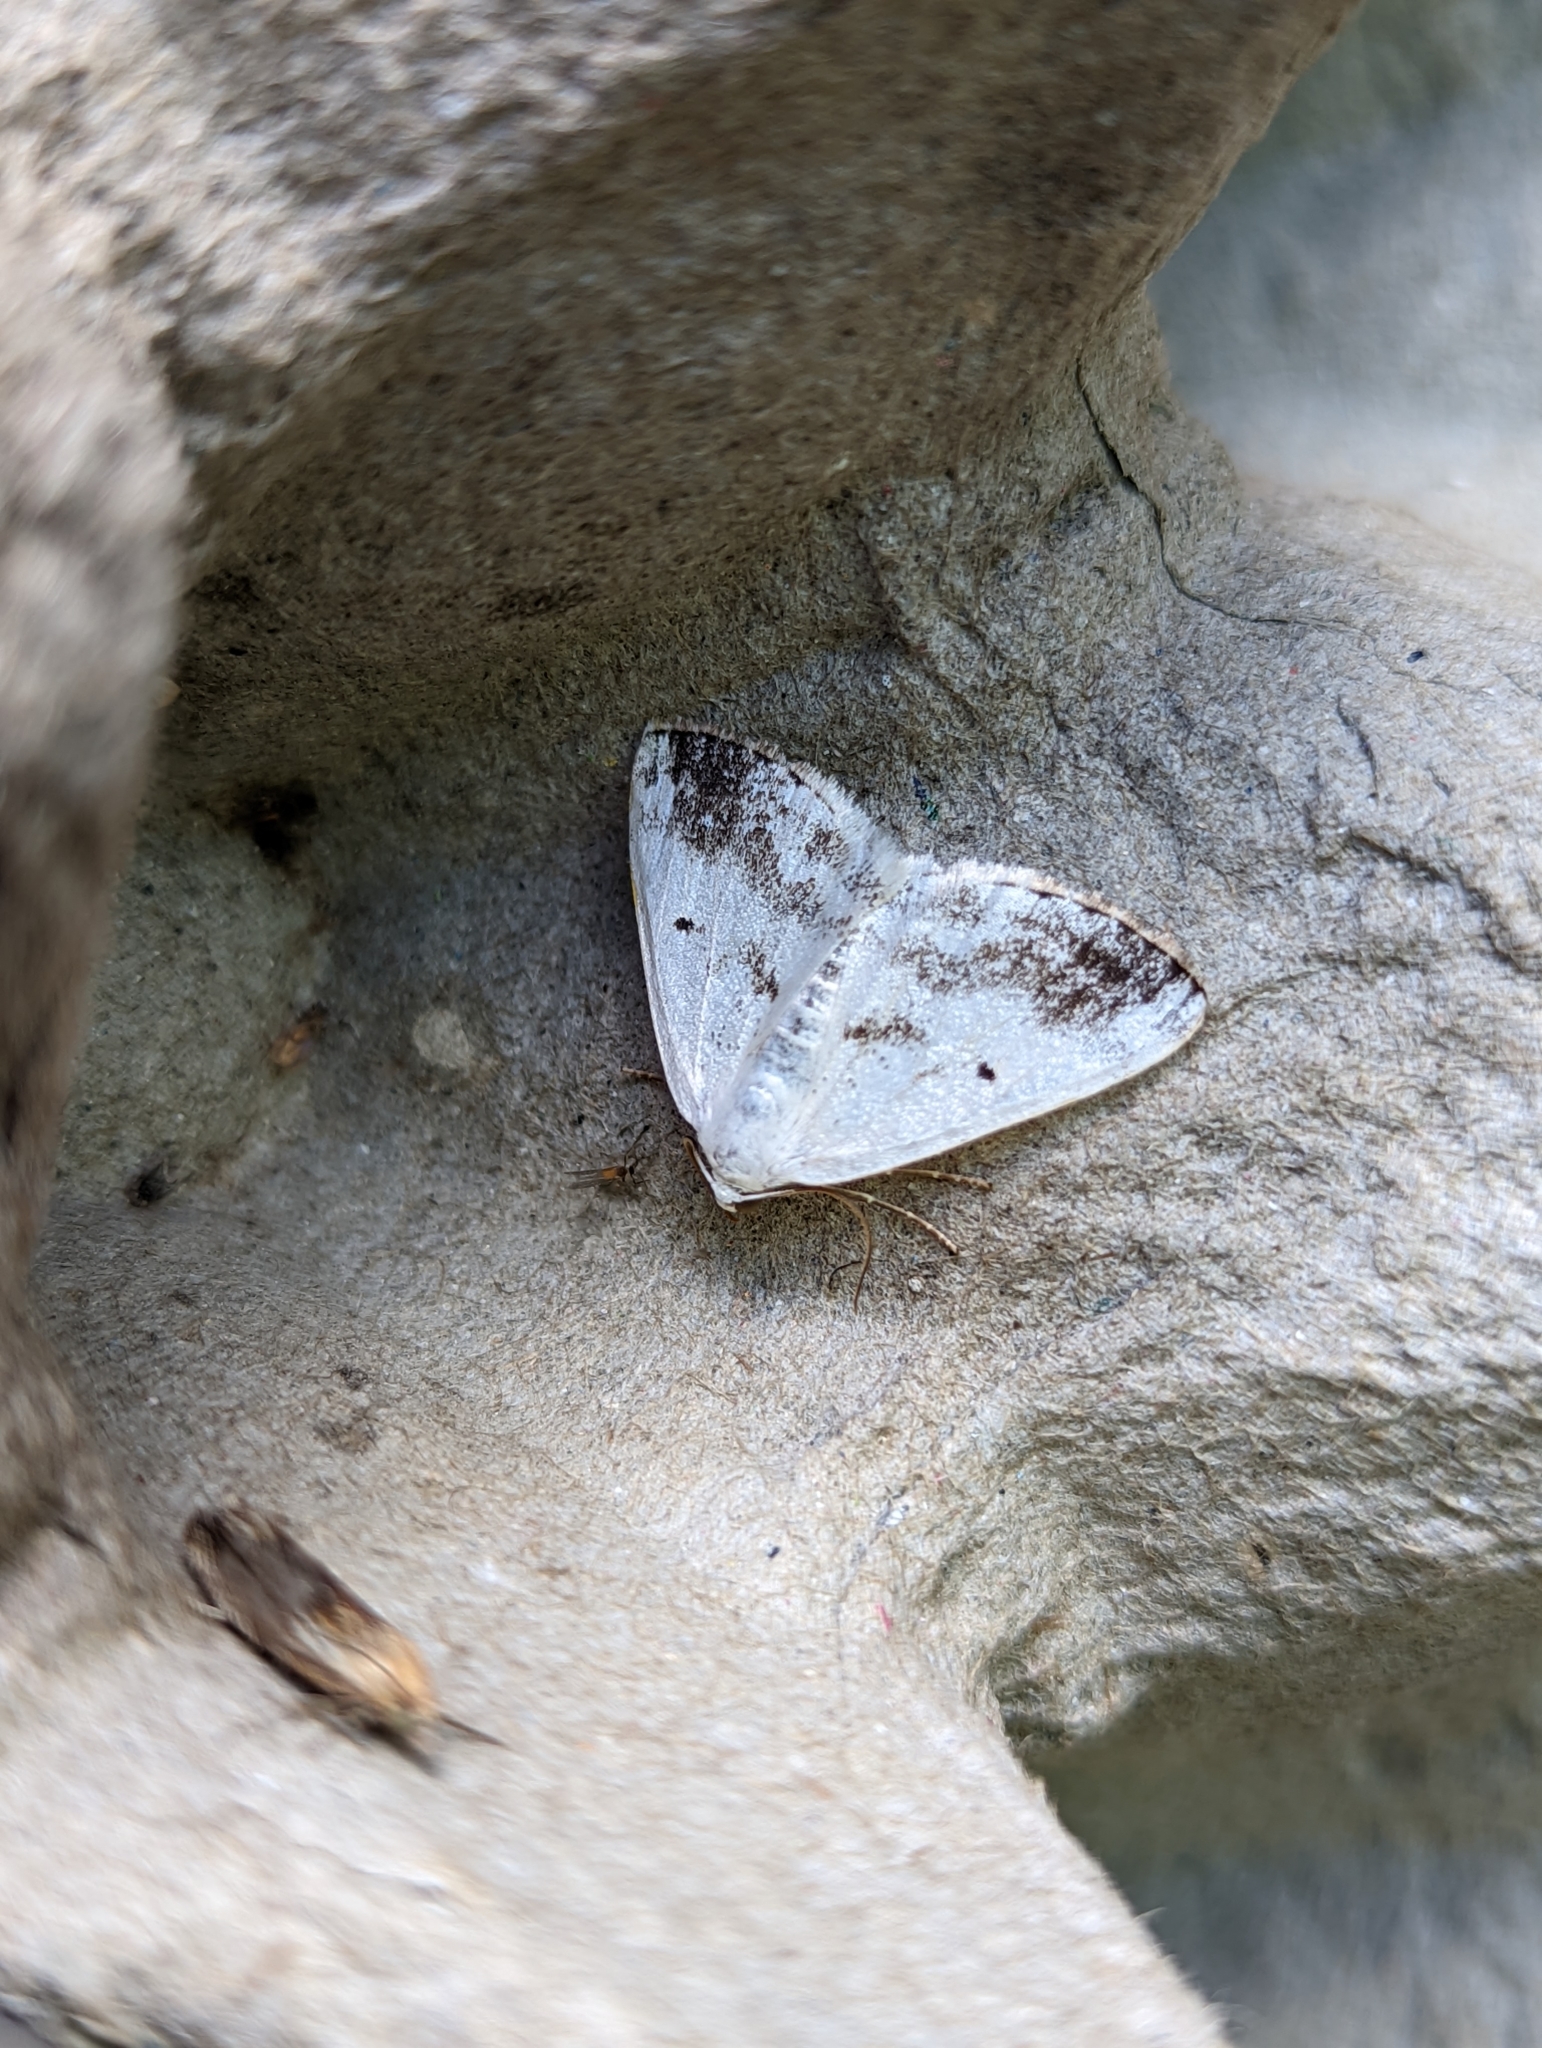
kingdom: Animalia
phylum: Arthropoda
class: Insecta
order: Lepidoptera
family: Geometridae
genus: Lomographa
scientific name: Lomographa temerata
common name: Clouded silver
